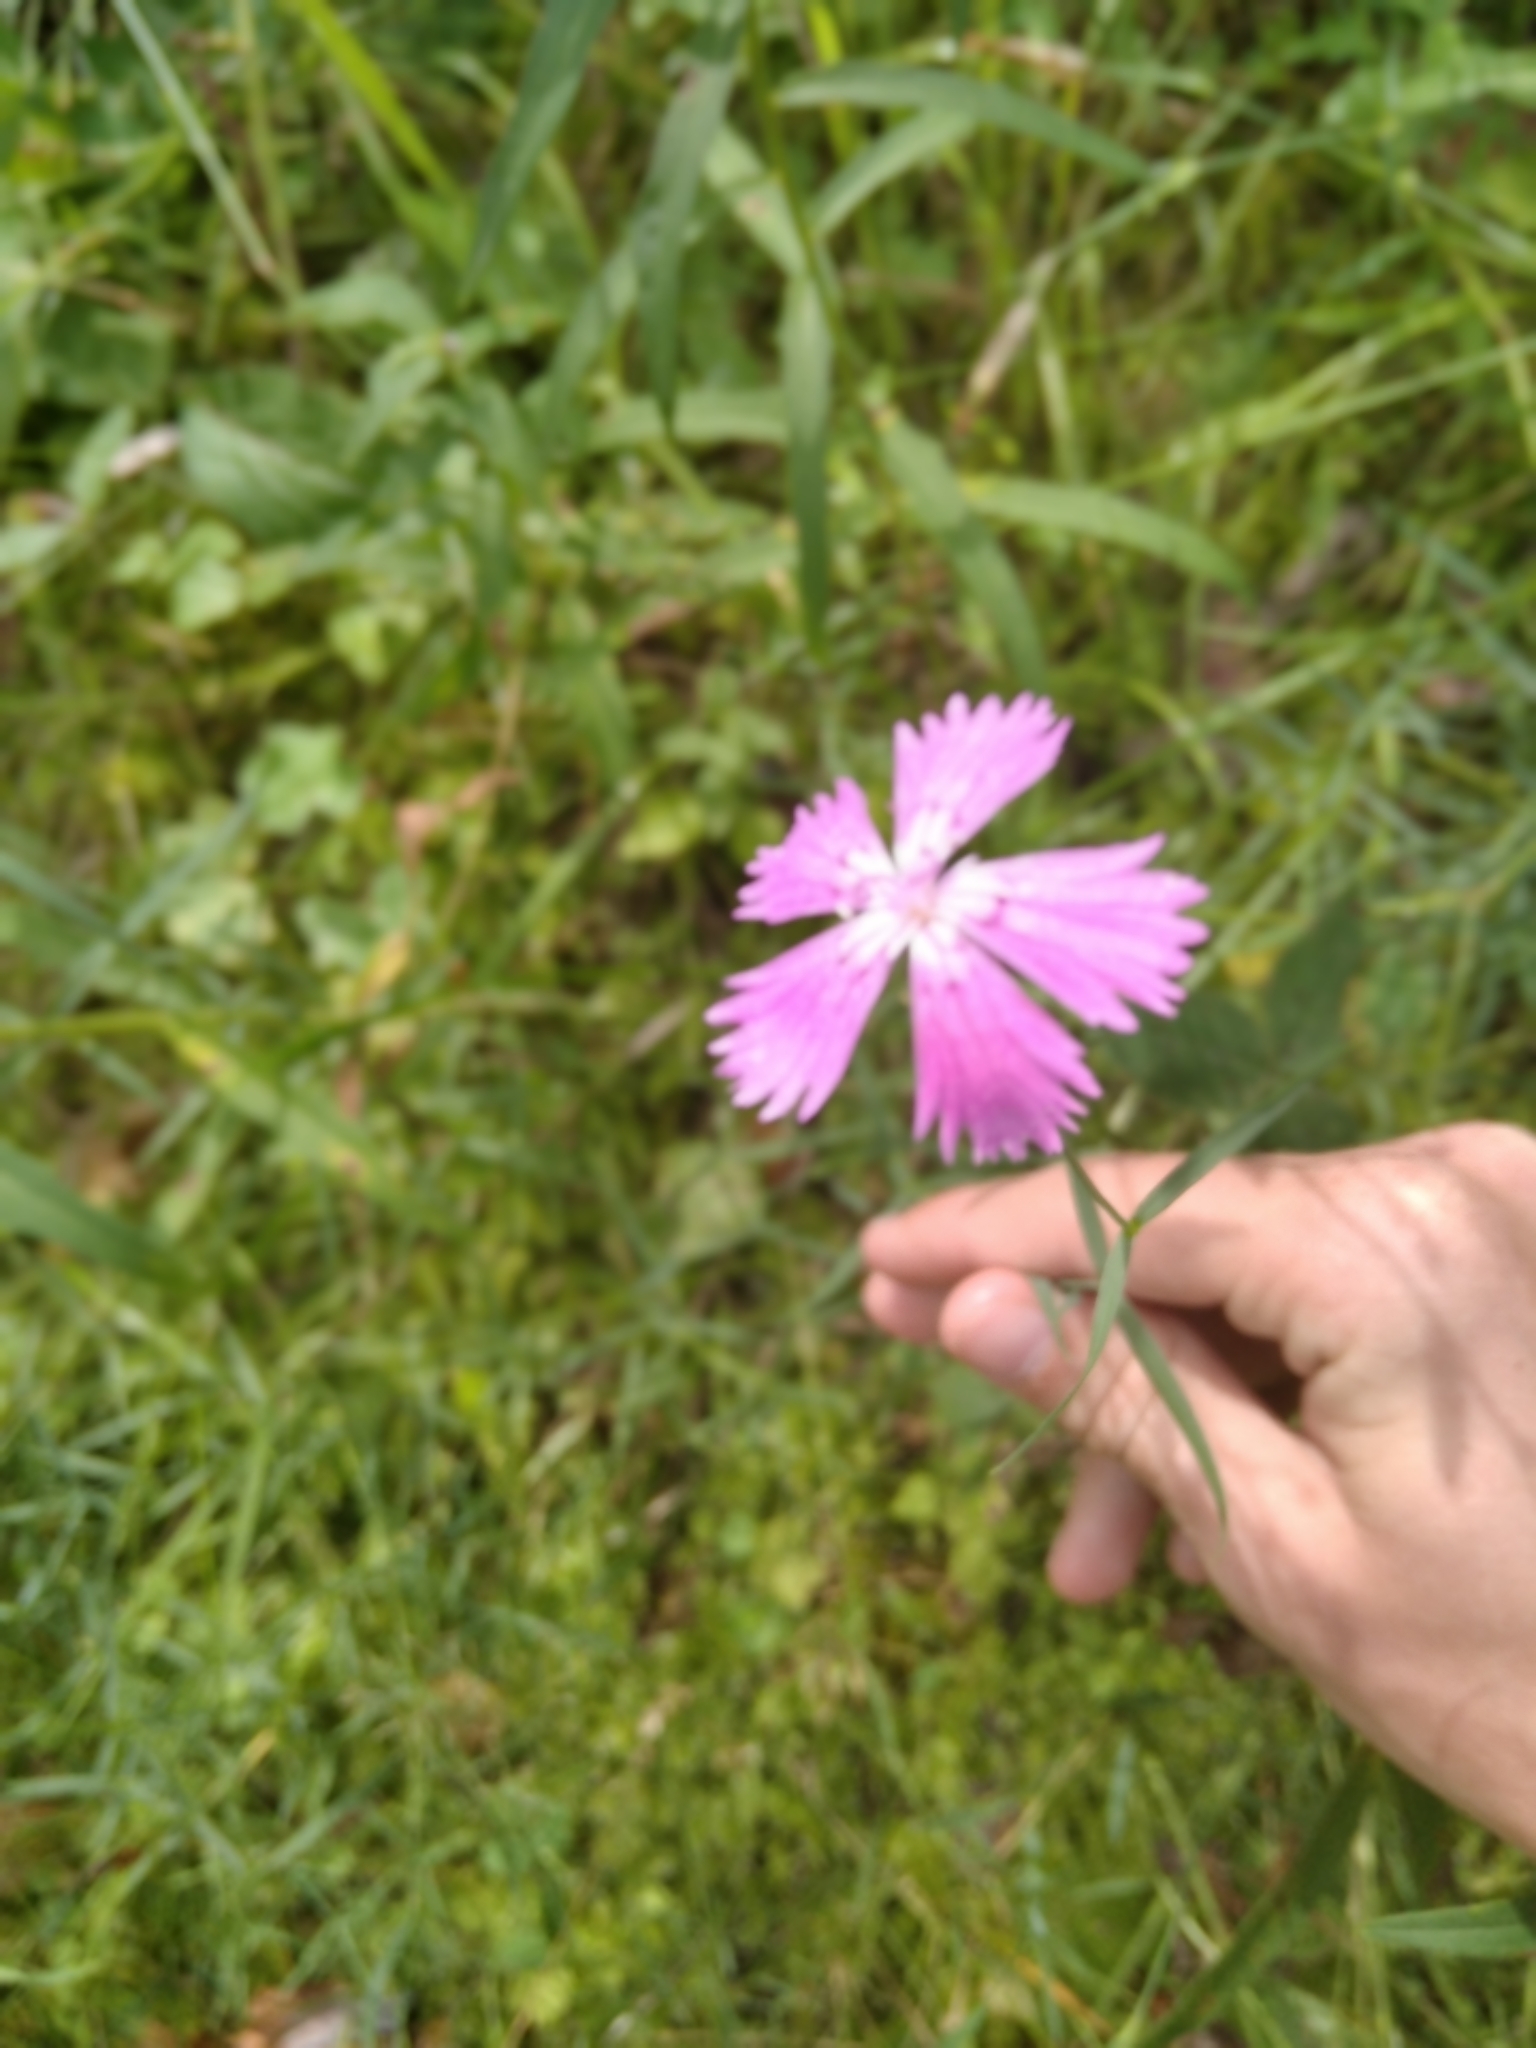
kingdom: Plantae
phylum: Tracheophyta
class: Magnoliopsida
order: Caryophyllales
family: Caryophyllaceae
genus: Dianthus
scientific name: Dianthus chinensis
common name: Rainbow pink
